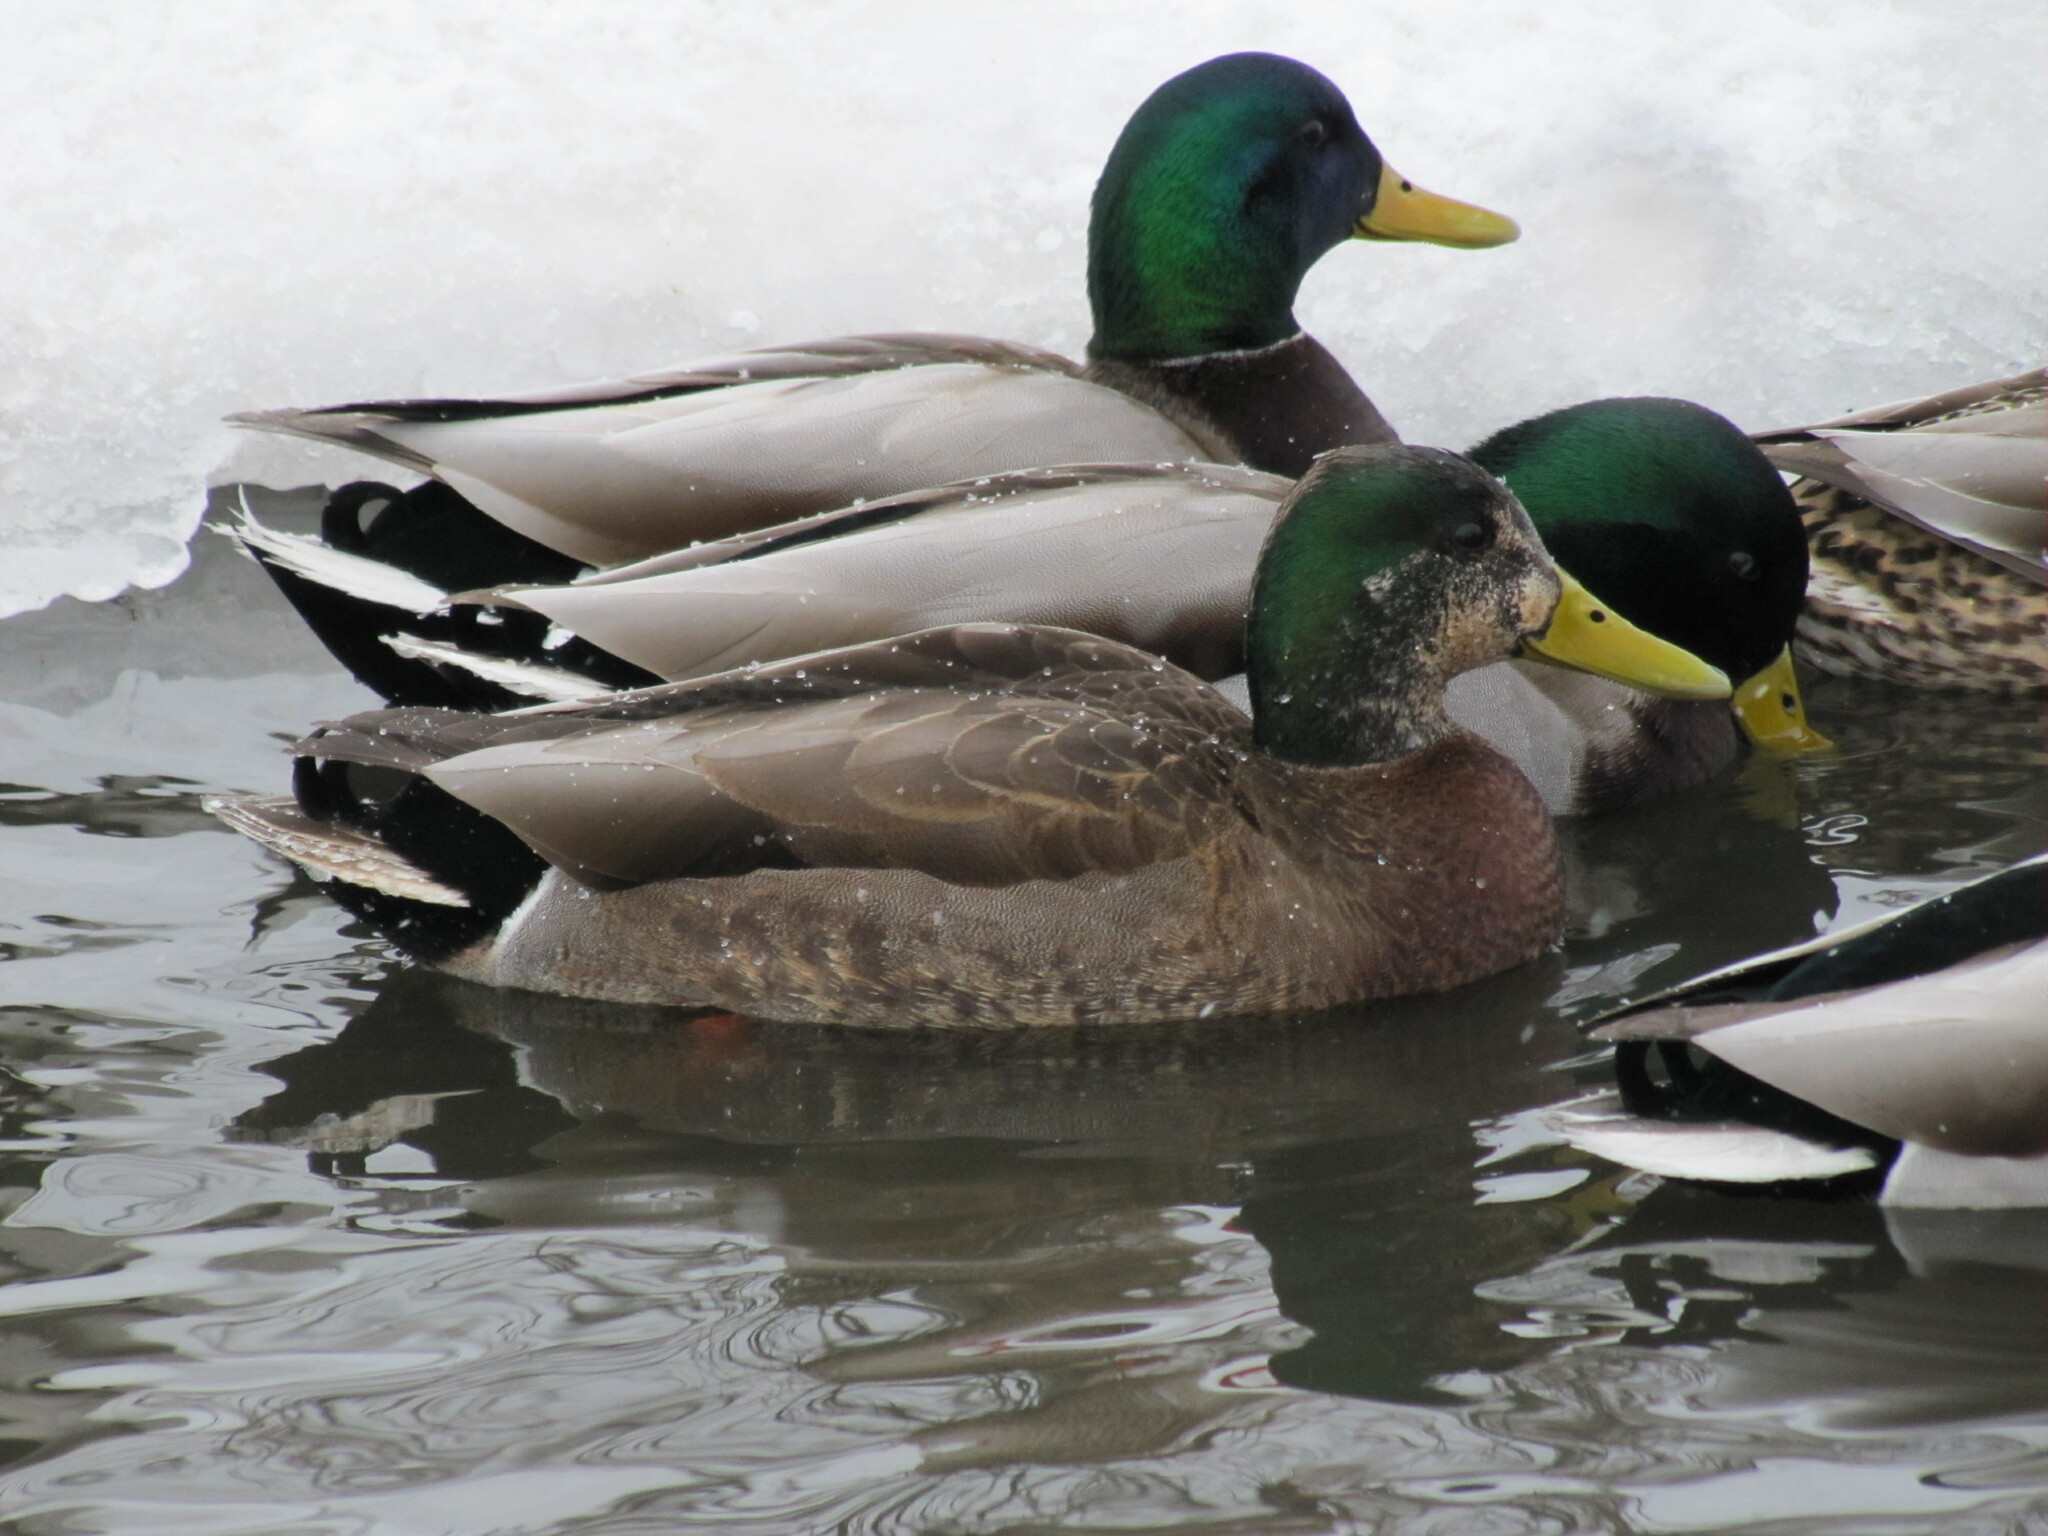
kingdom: Animalia
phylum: Chordata
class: Aves
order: Anseriformes
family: Anatidae
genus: Anas
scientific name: Anas
